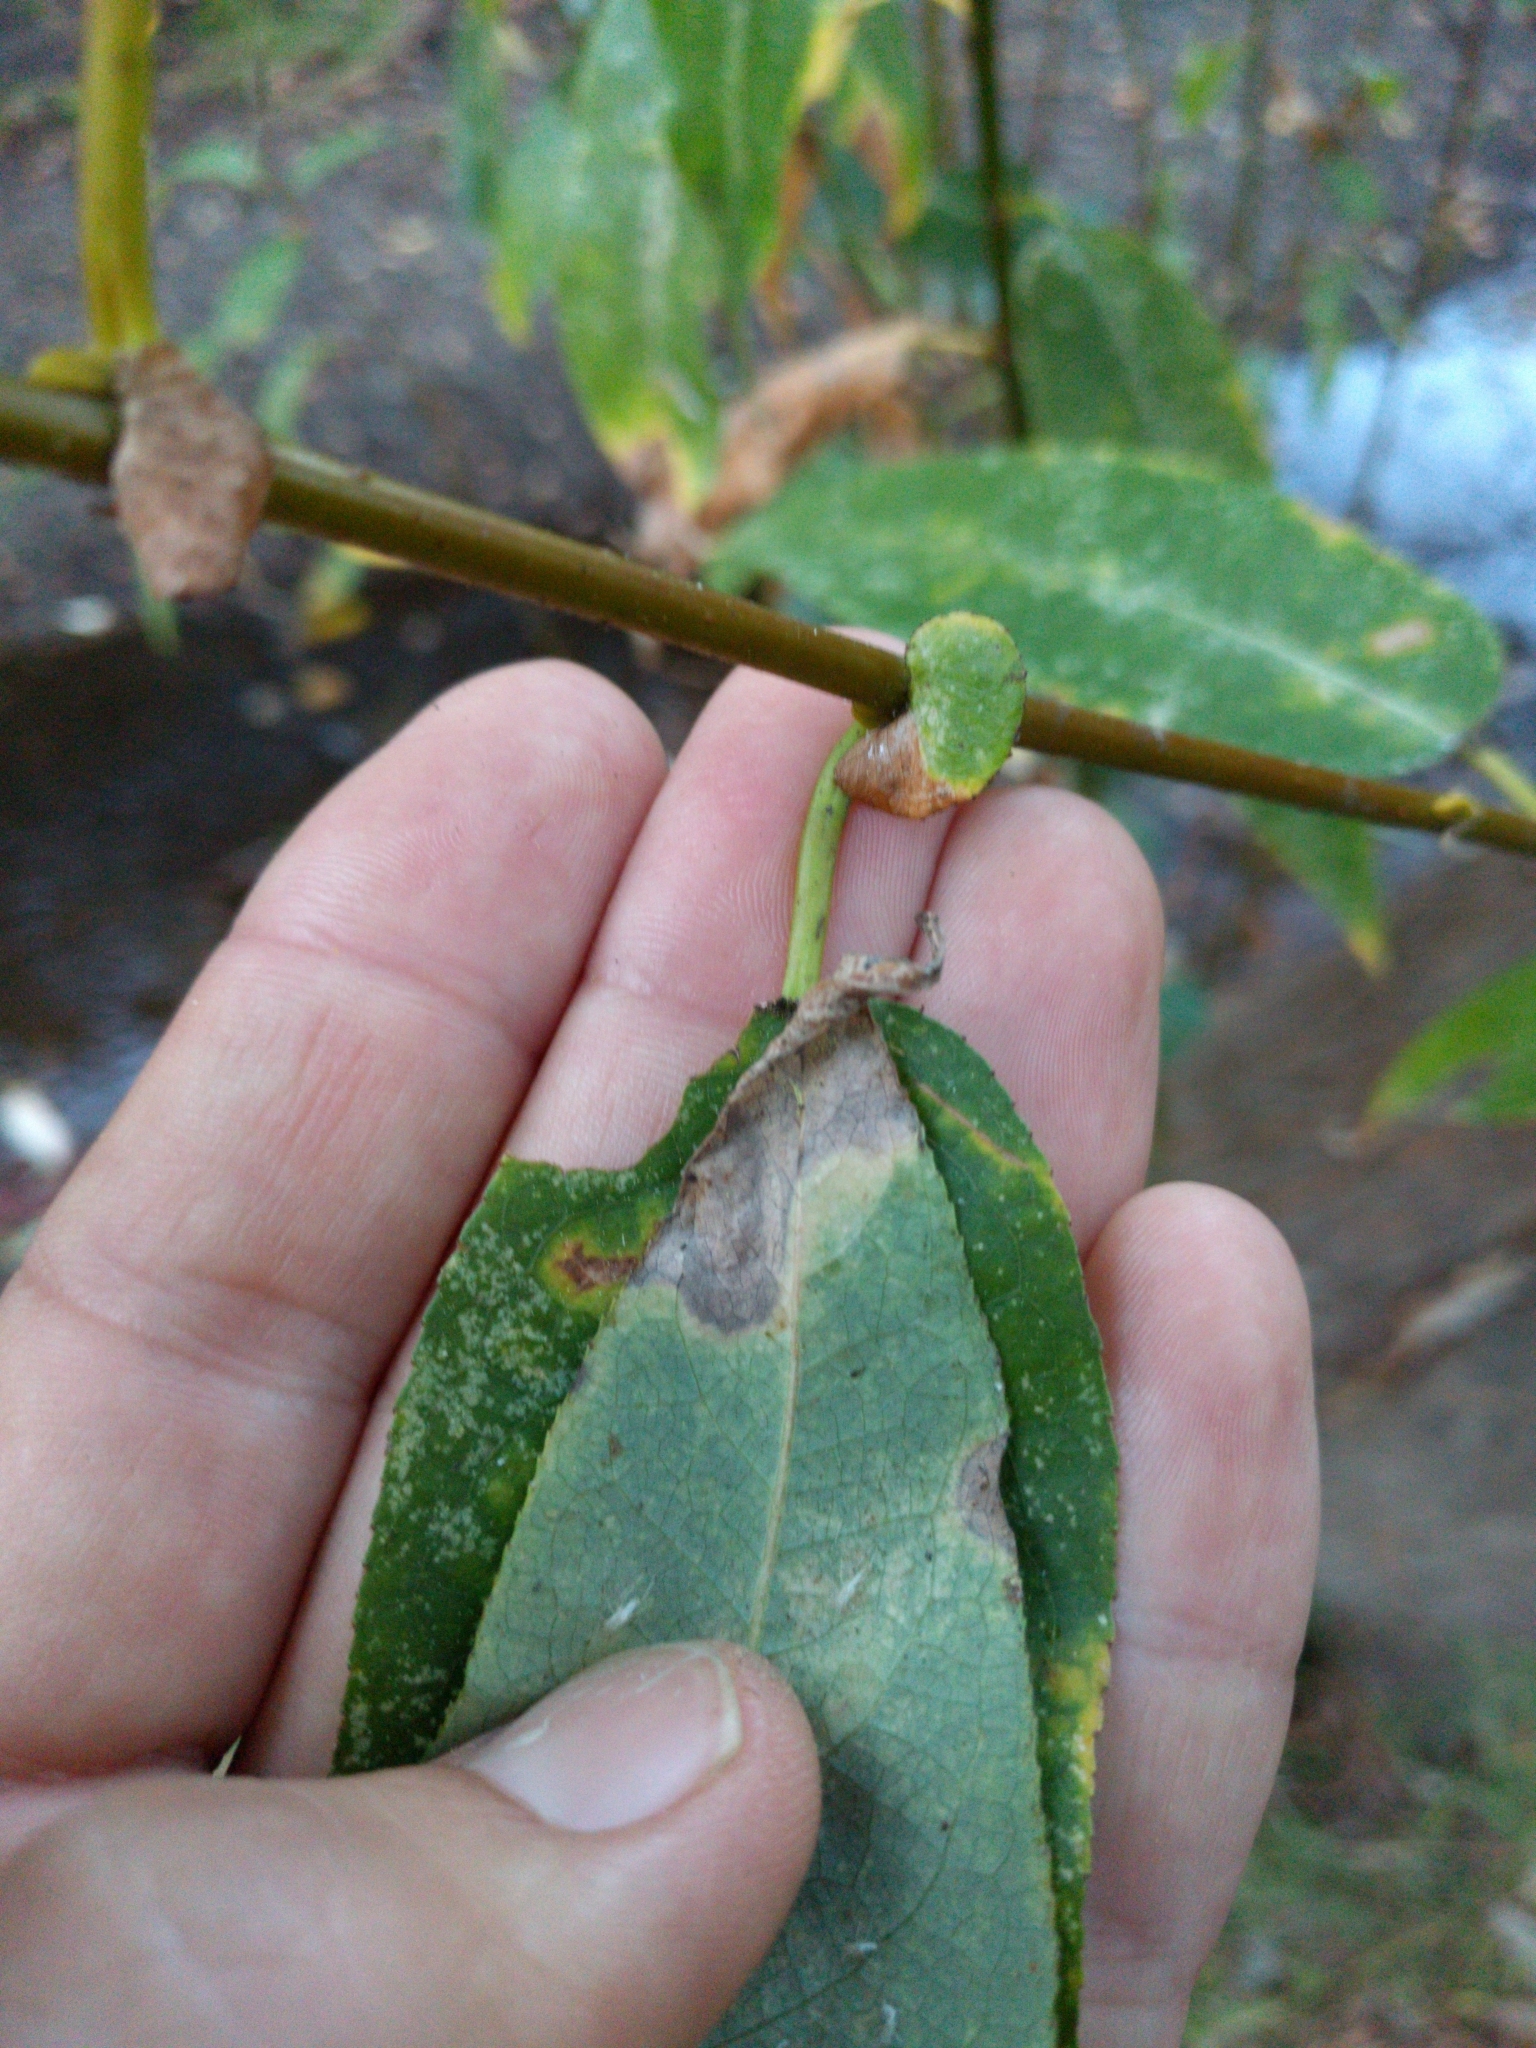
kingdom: Plantae
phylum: Tracheophyta
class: Magnoliopsida
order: Malpighiales
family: Salicaceae
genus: Salix
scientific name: Salix lucida
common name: Shining willow
